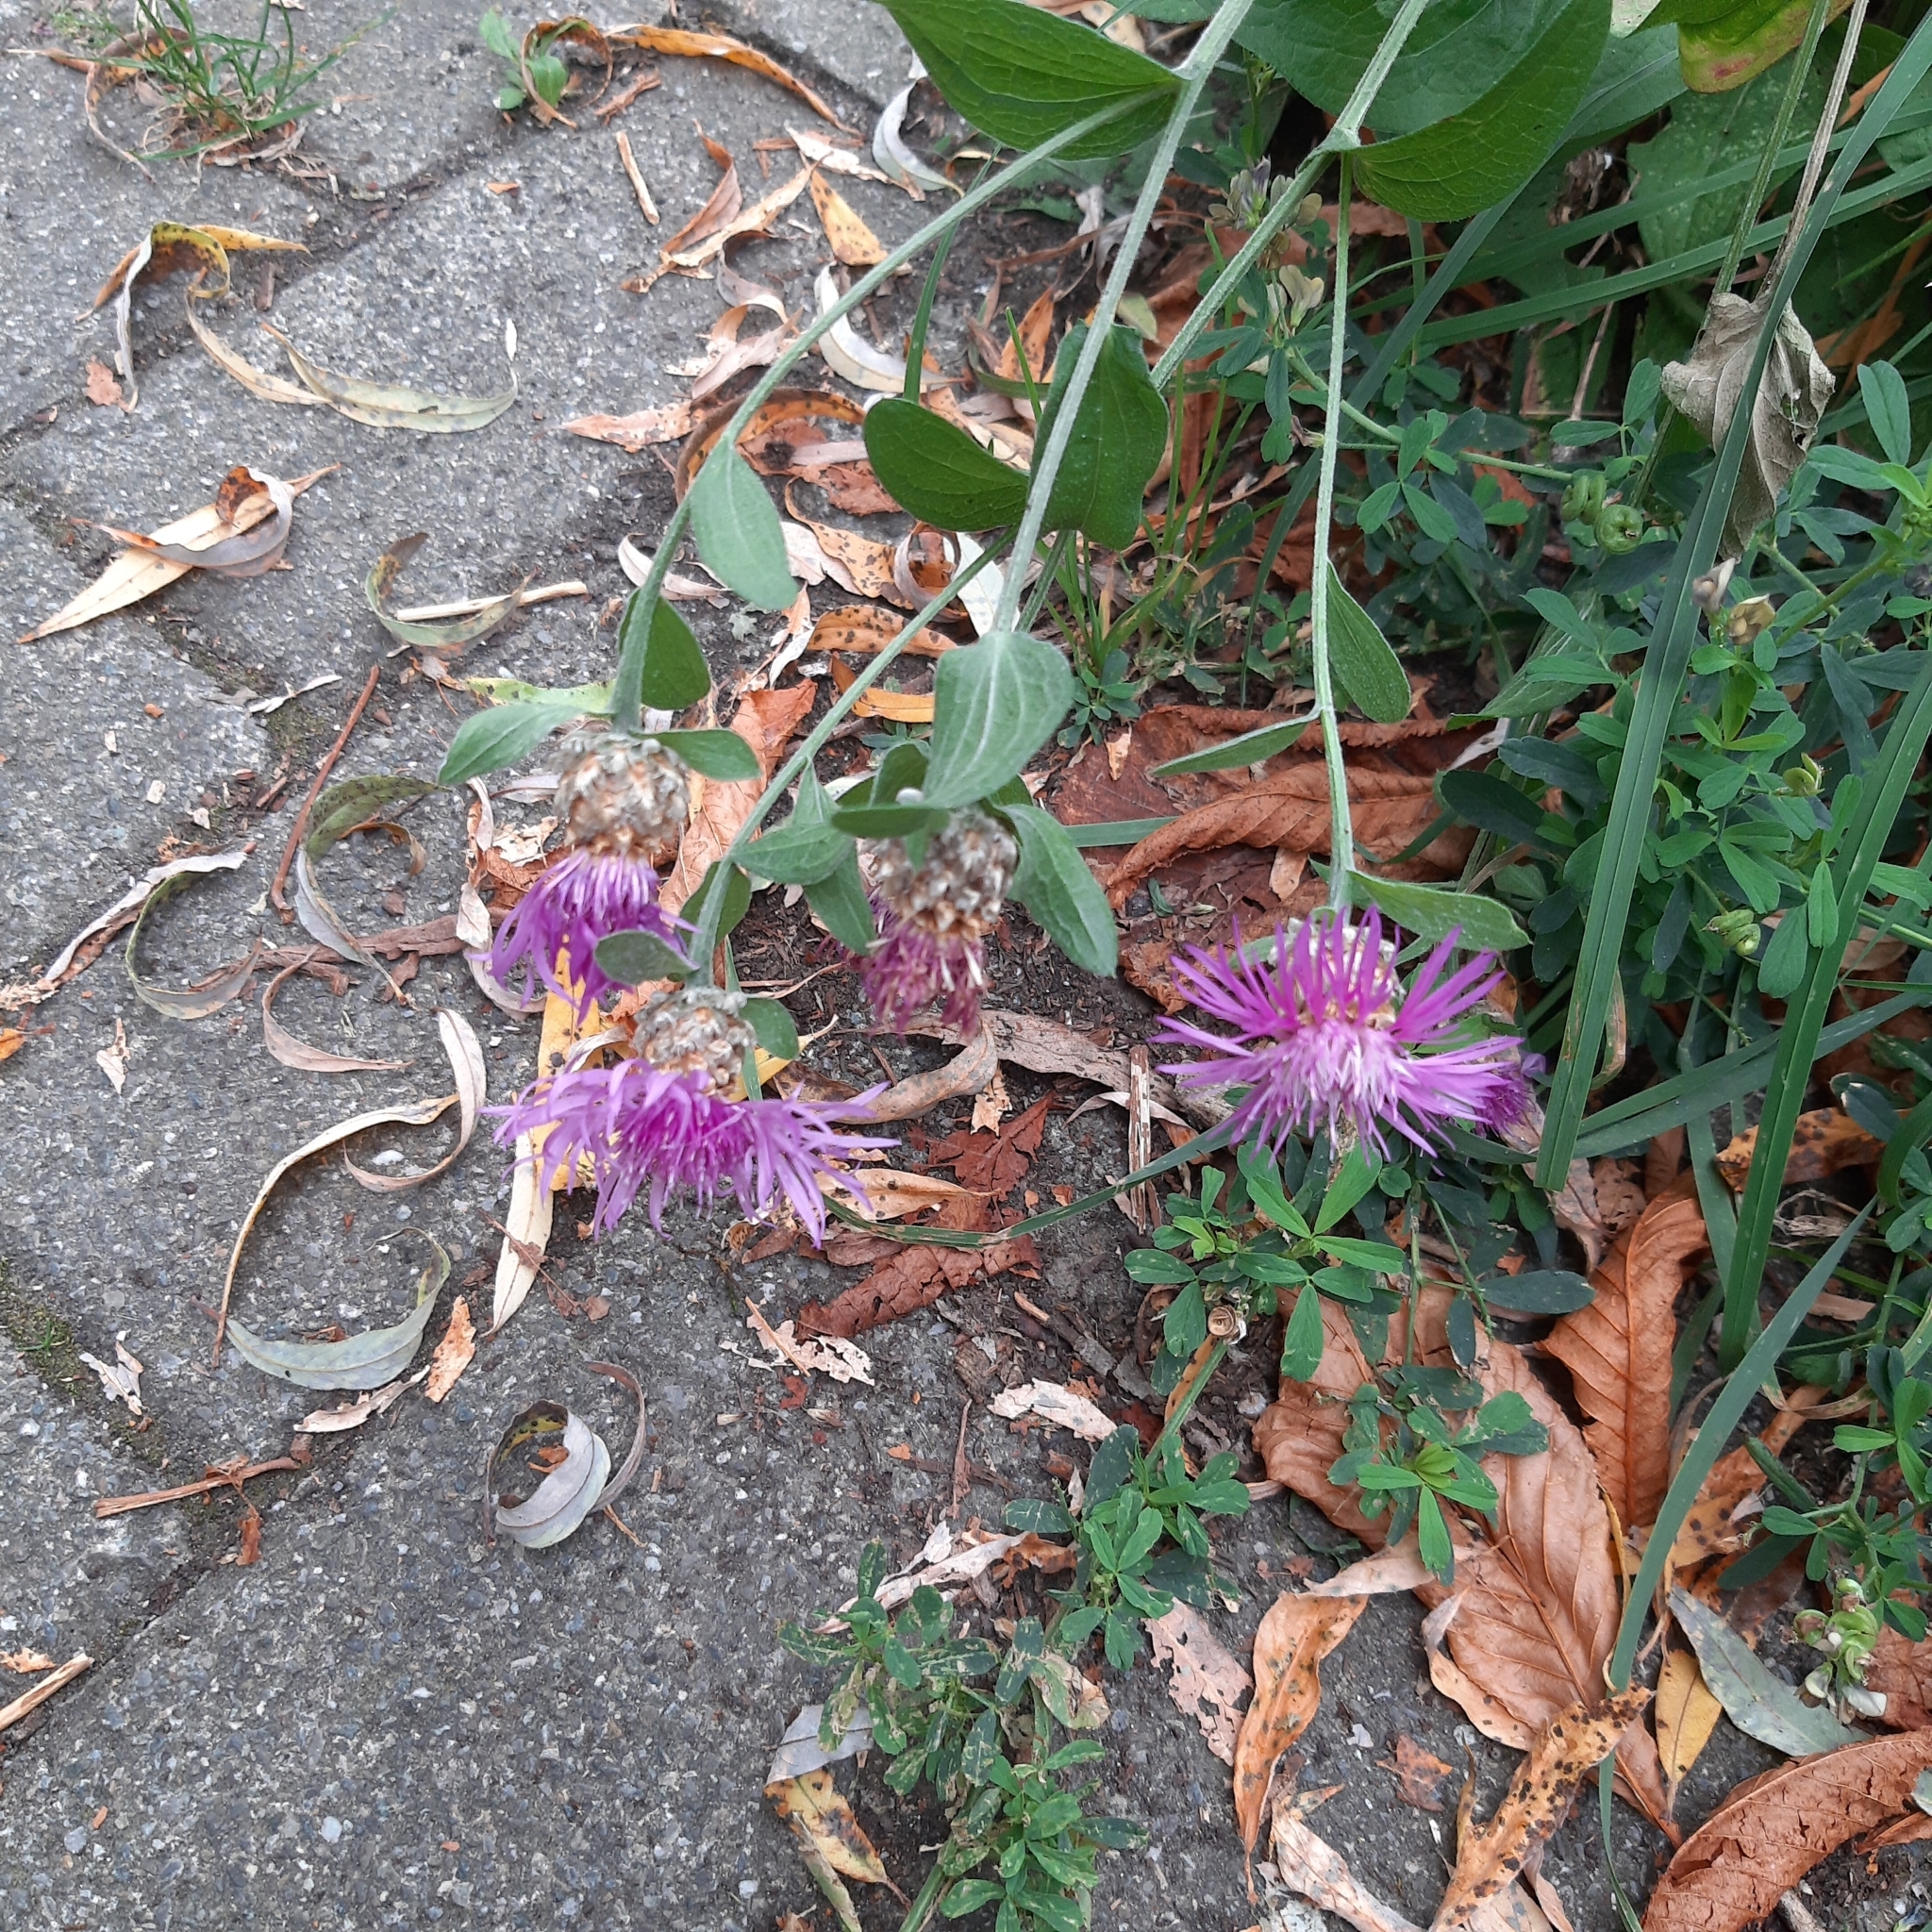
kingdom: Plantae
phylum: Tracheophyta
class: Magnoliopsida
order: Asterales
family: Asteraceae
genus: Centaurea
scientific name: Centaurea jacea
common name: Brown knapweed
